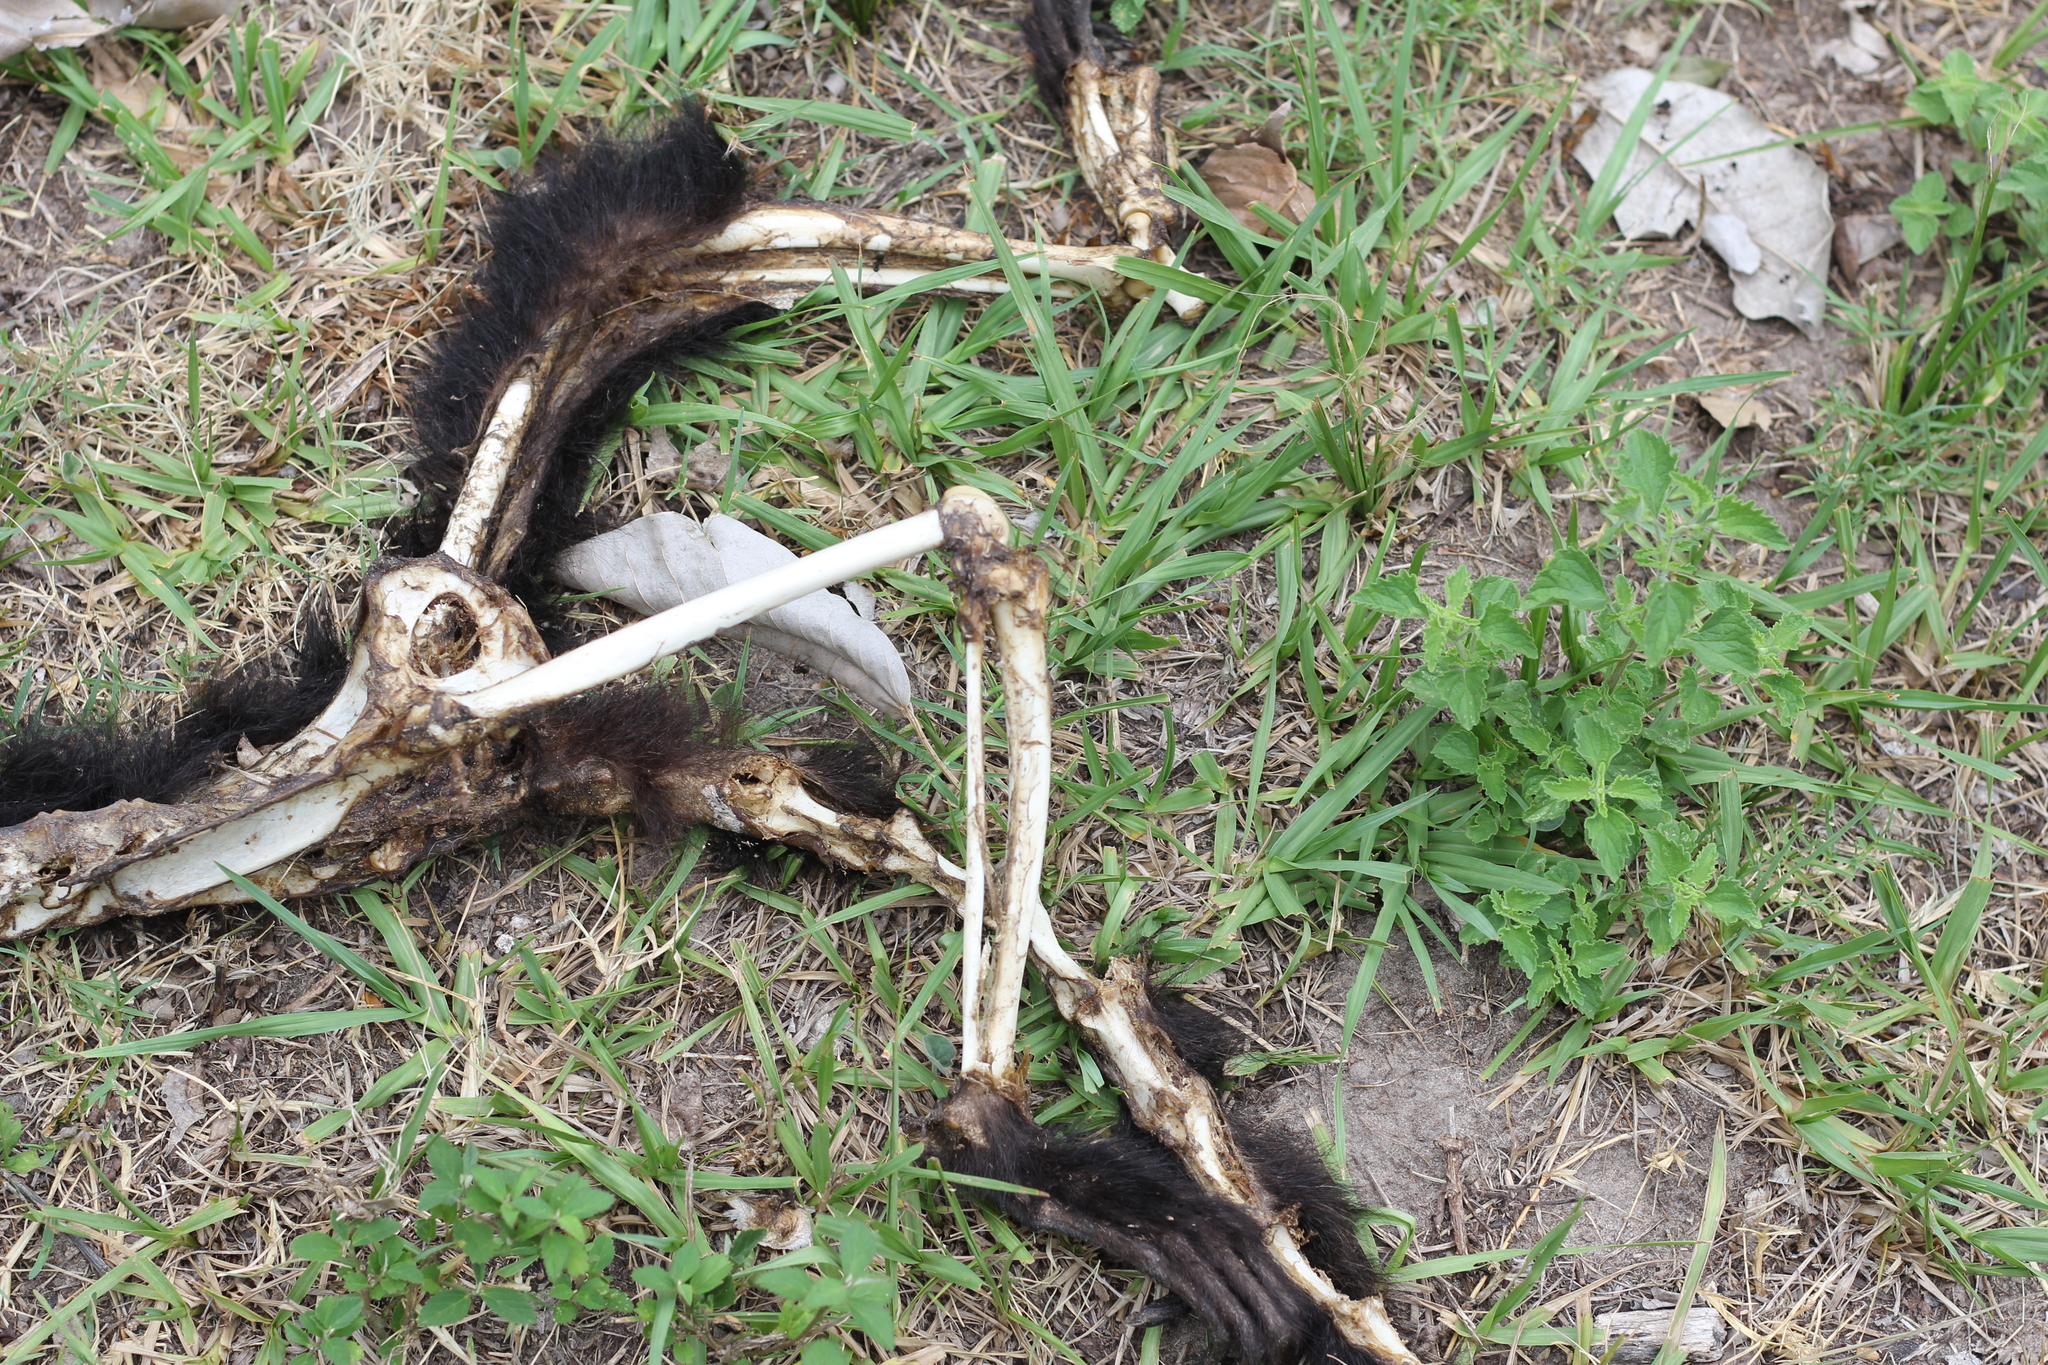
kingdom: Animalia
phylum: Chordata
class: Mammalia
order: Primates
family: Atelidae
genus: Alouatta
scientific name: Alouatta caraya
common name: Black howler
